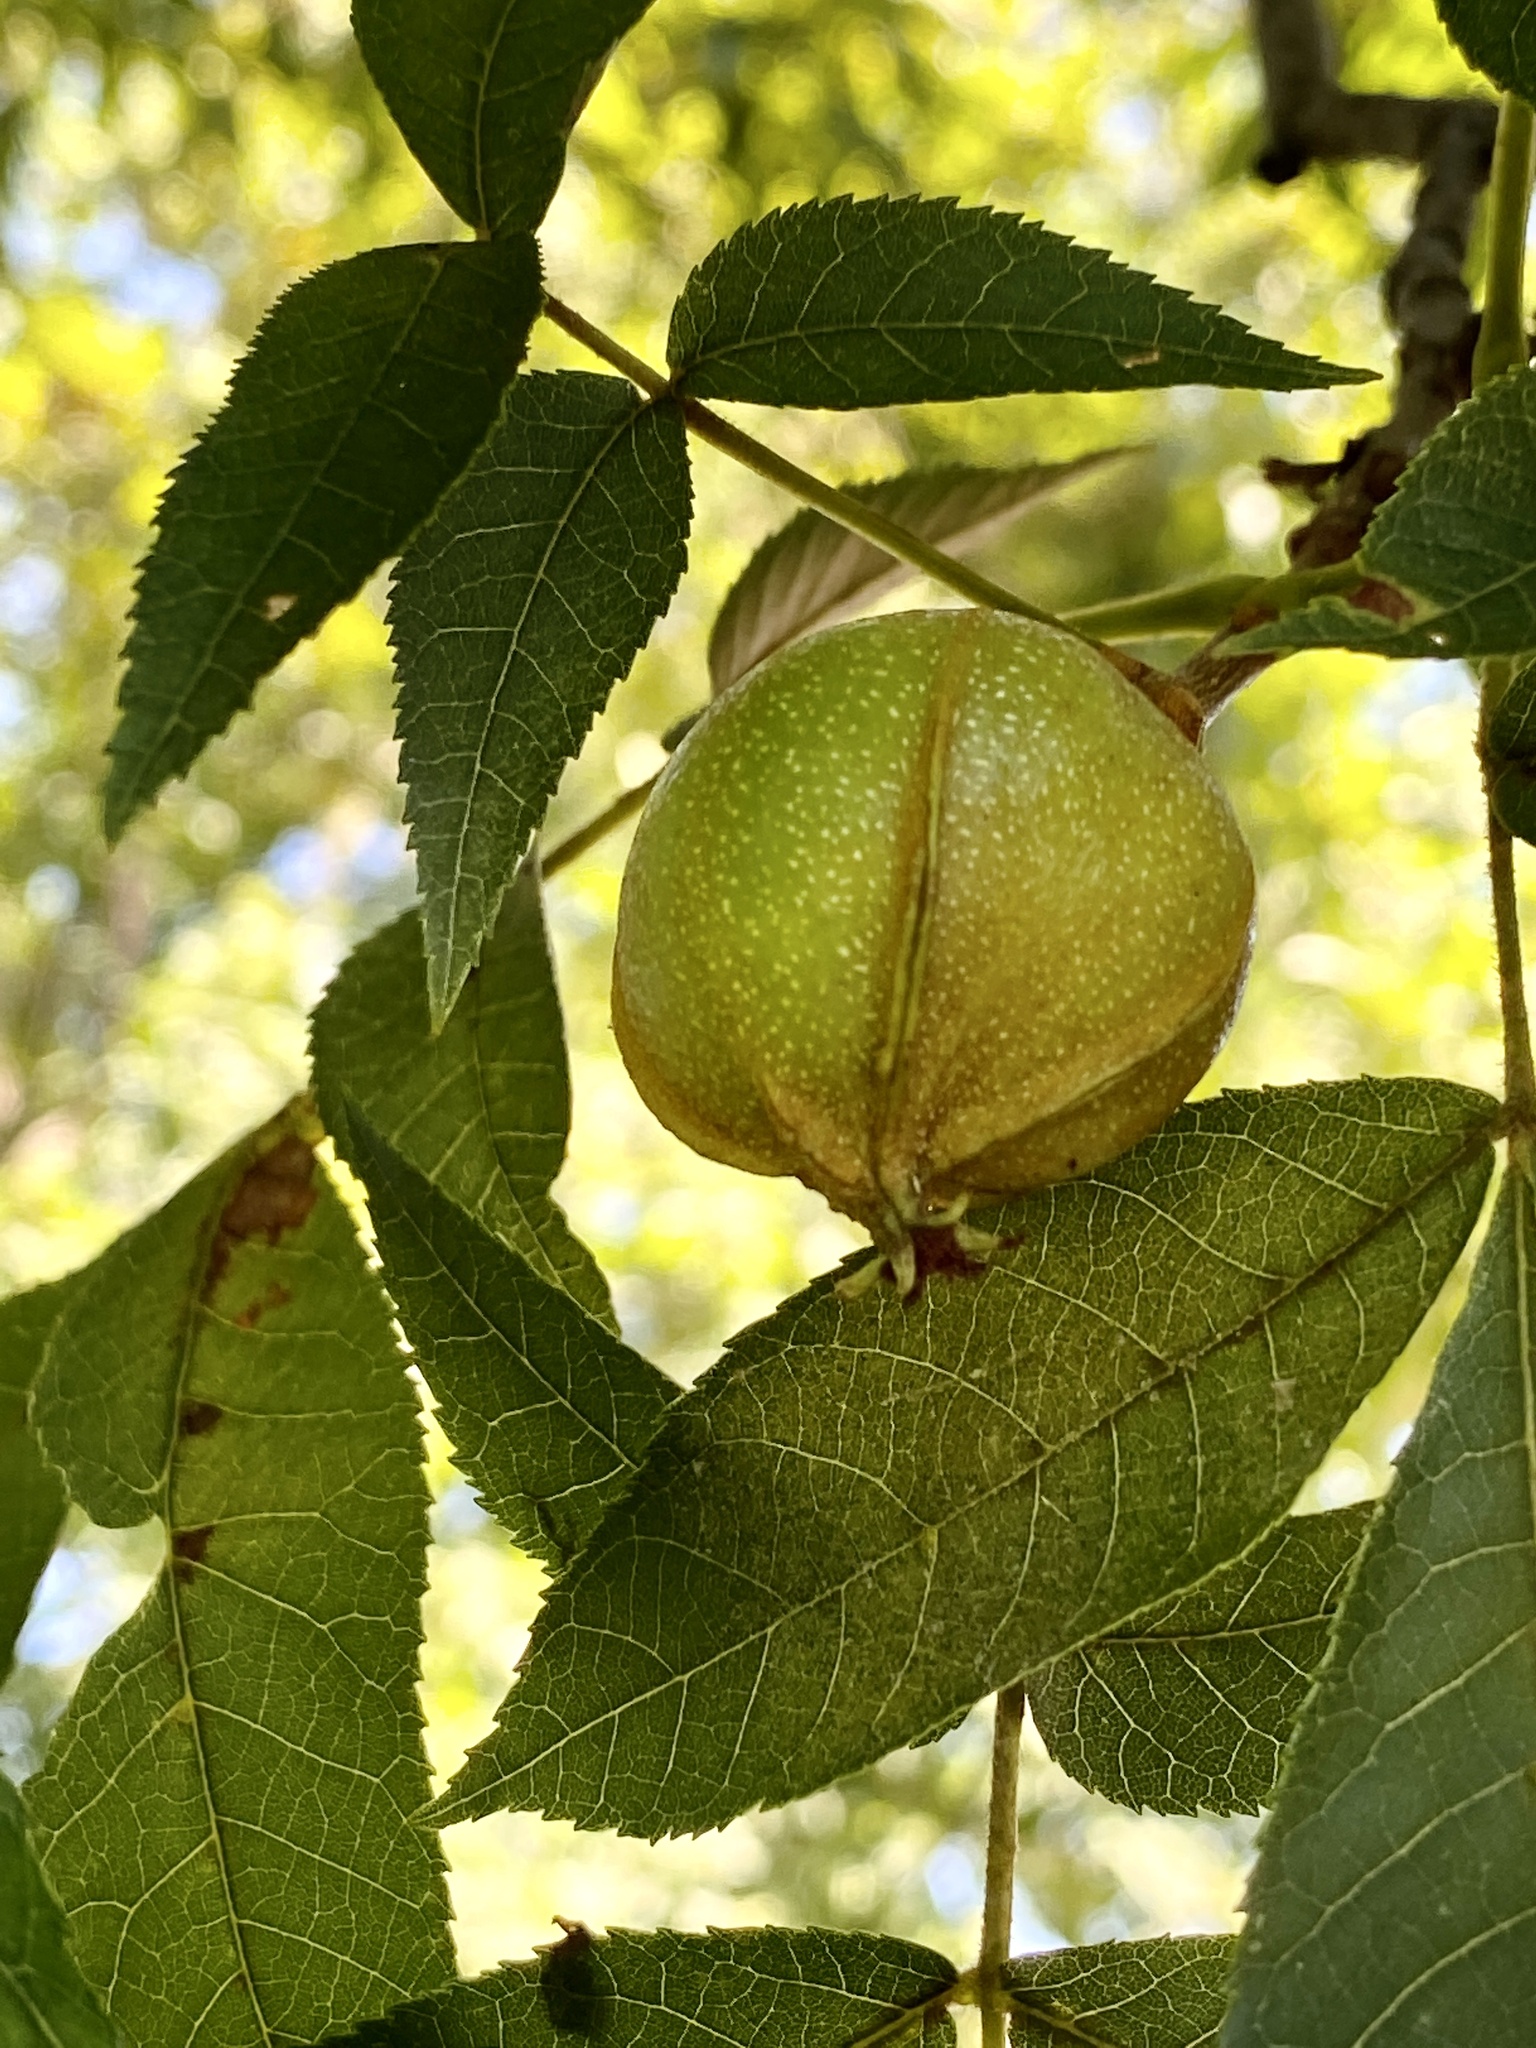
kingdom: Plantae
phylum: Tracheophyta
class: Magnoliopsida
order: Fagales
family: Juglandaceae
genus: Carya
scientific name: Carya cordiformis
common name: Bitternut hickory
